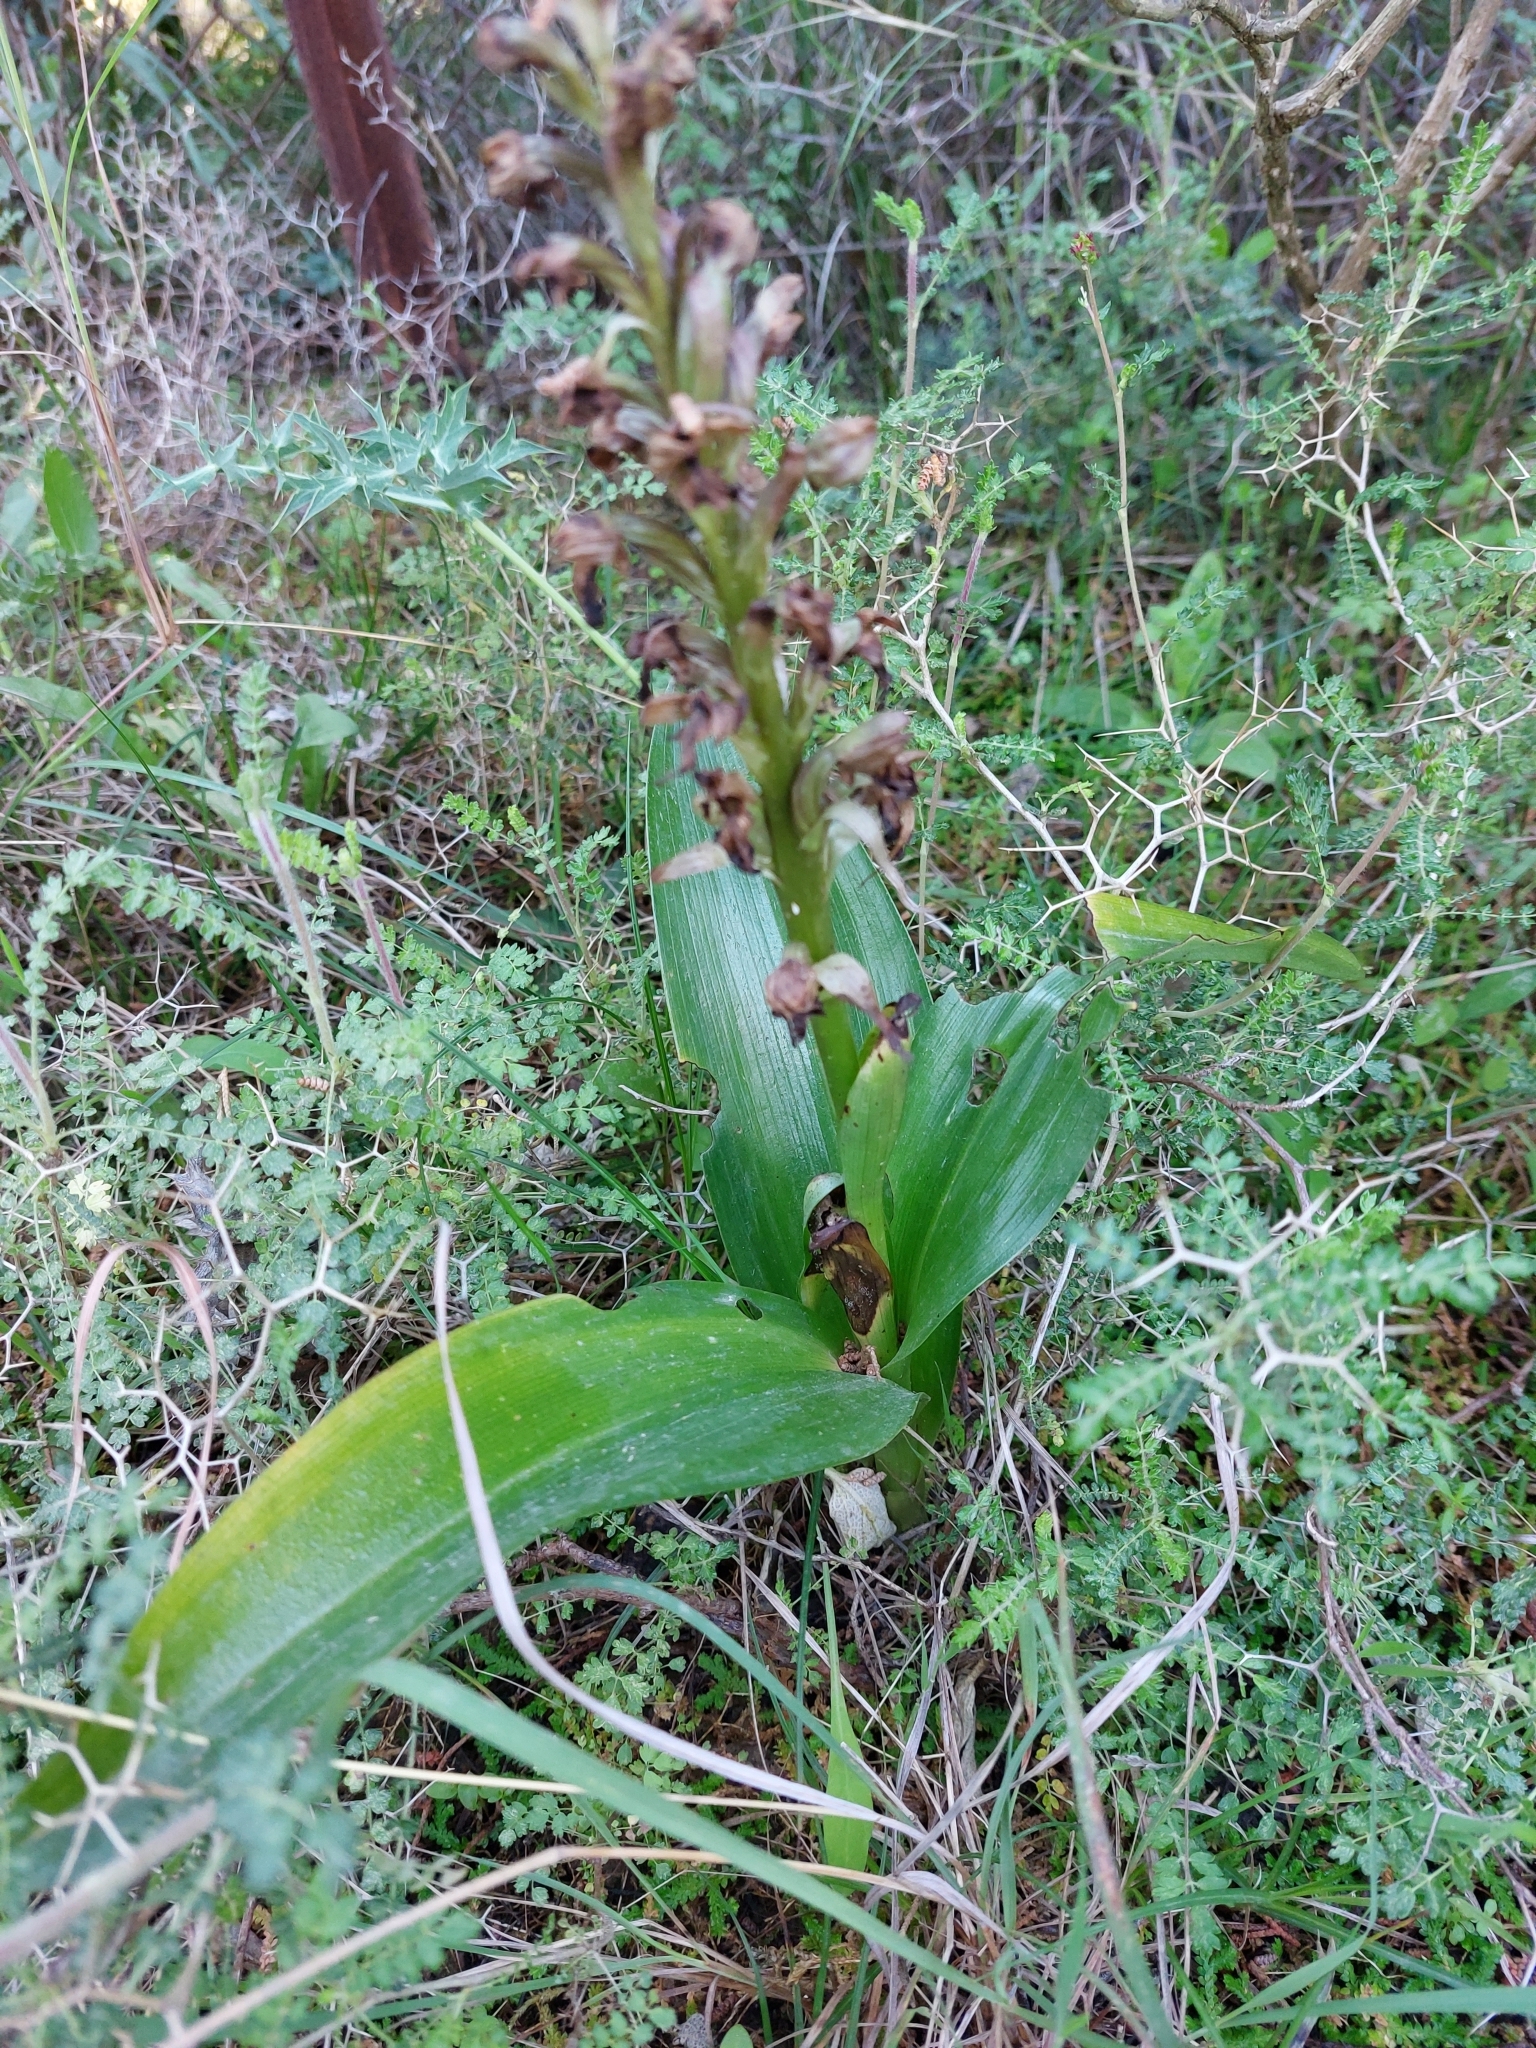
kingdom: Plantae
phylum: Tracheophyta
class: Liliopsida
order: Asparagales
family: Orchidaceae
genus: Himantoglossum
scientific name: Himantoglossum robertianum
